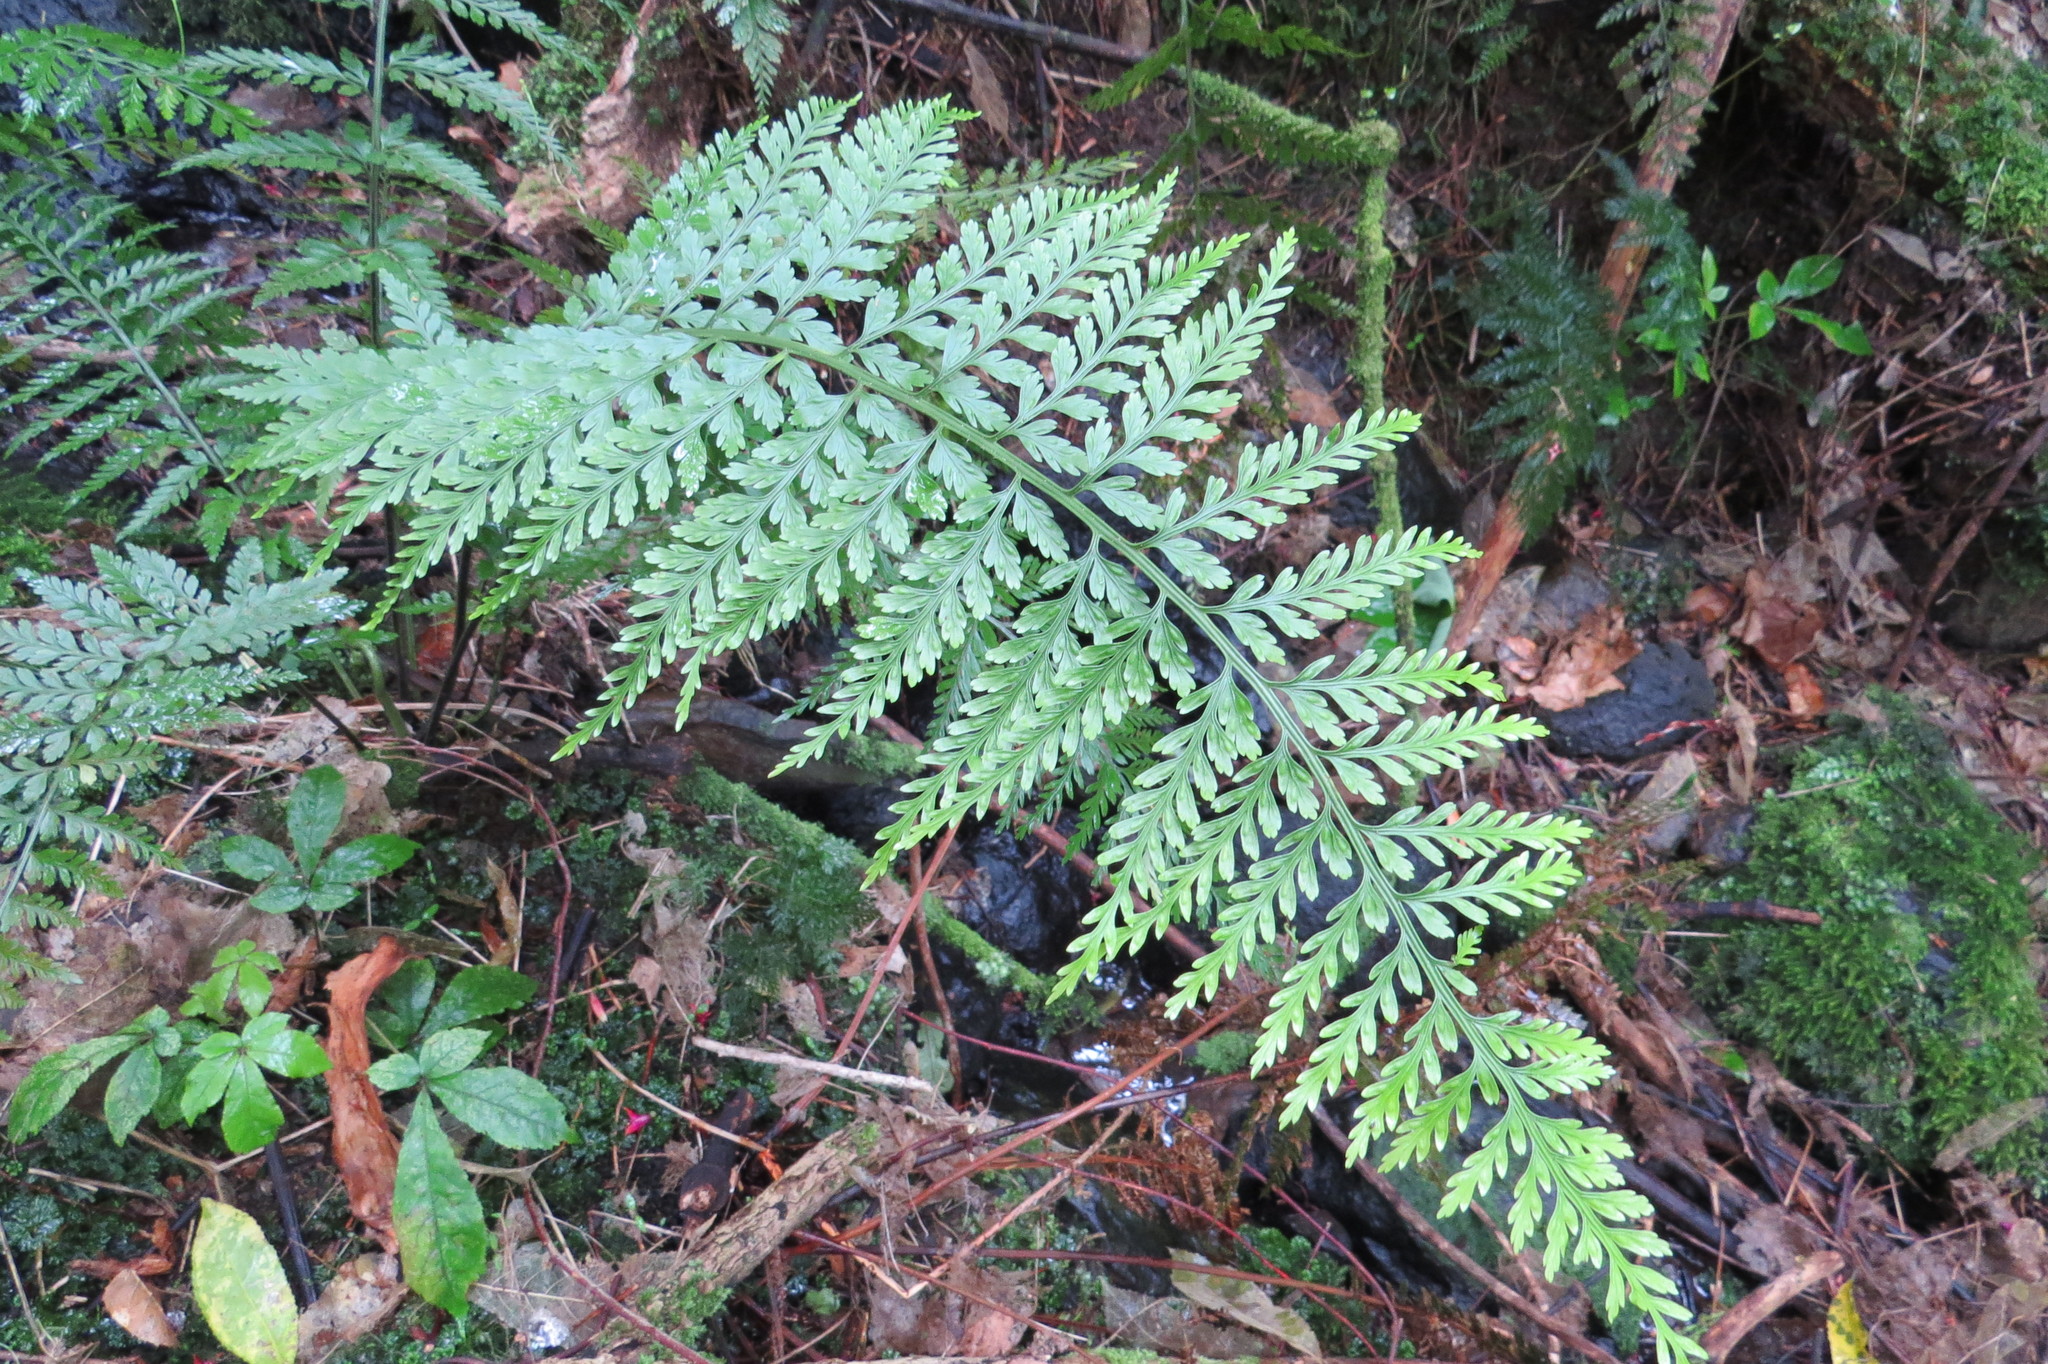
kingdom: Plantae
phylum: Tracheophyta
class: Polypodiopsida
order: Polypodiales
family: Aspleniaceae
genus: Asplenium
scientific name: Asplenium
